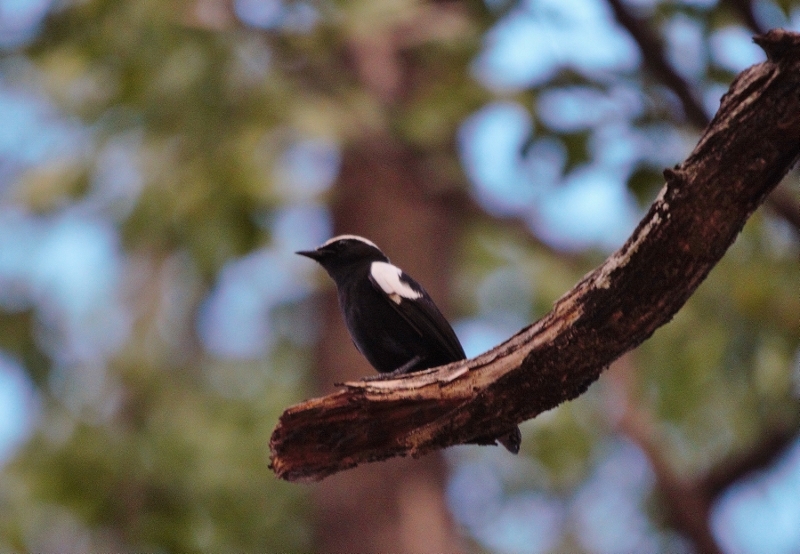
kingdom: Animalia
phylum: Chordata
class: Aves
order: Passeriformes
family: Muscicapidae
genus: Pentholaea
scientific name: Pentholaea arnotti
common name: Arnot's chat
